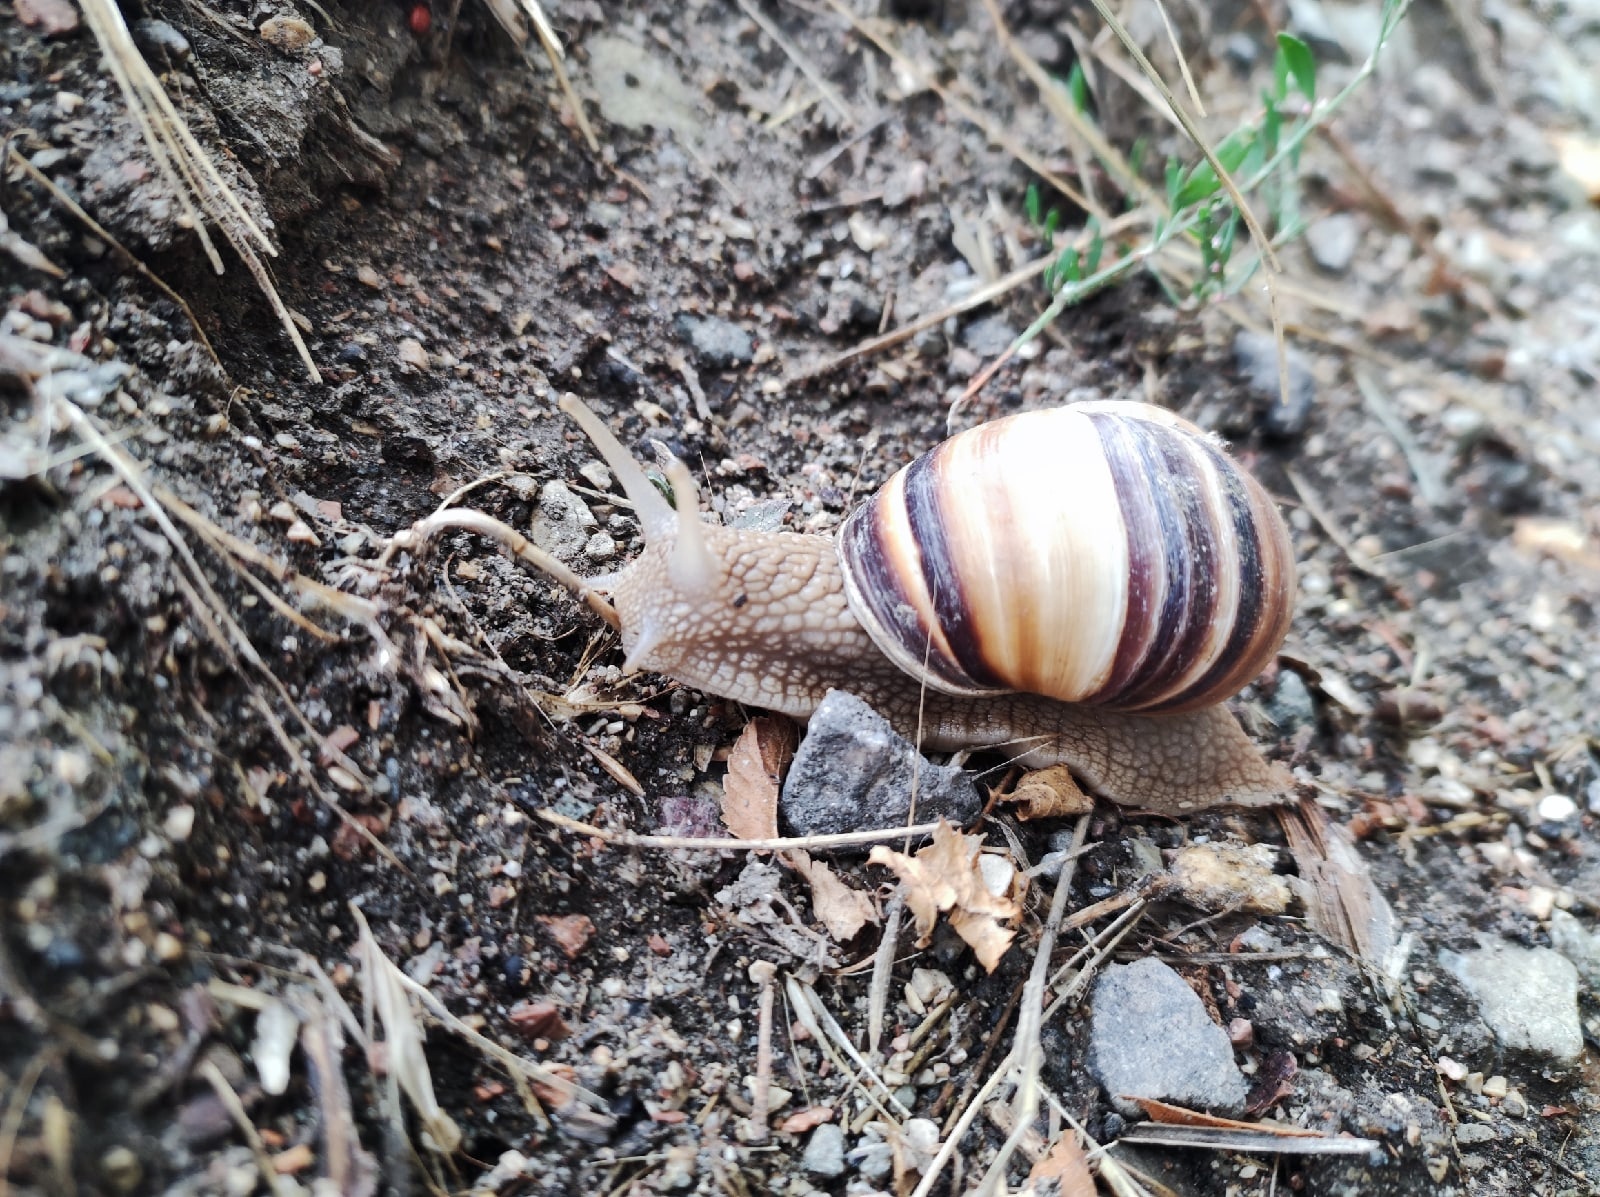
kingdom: Animalia
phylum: Mollusca
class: Gastropoda
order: Stylommatophora
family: Helicidae
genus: Helix
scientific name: Helix lucorum
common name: Turkish snail
